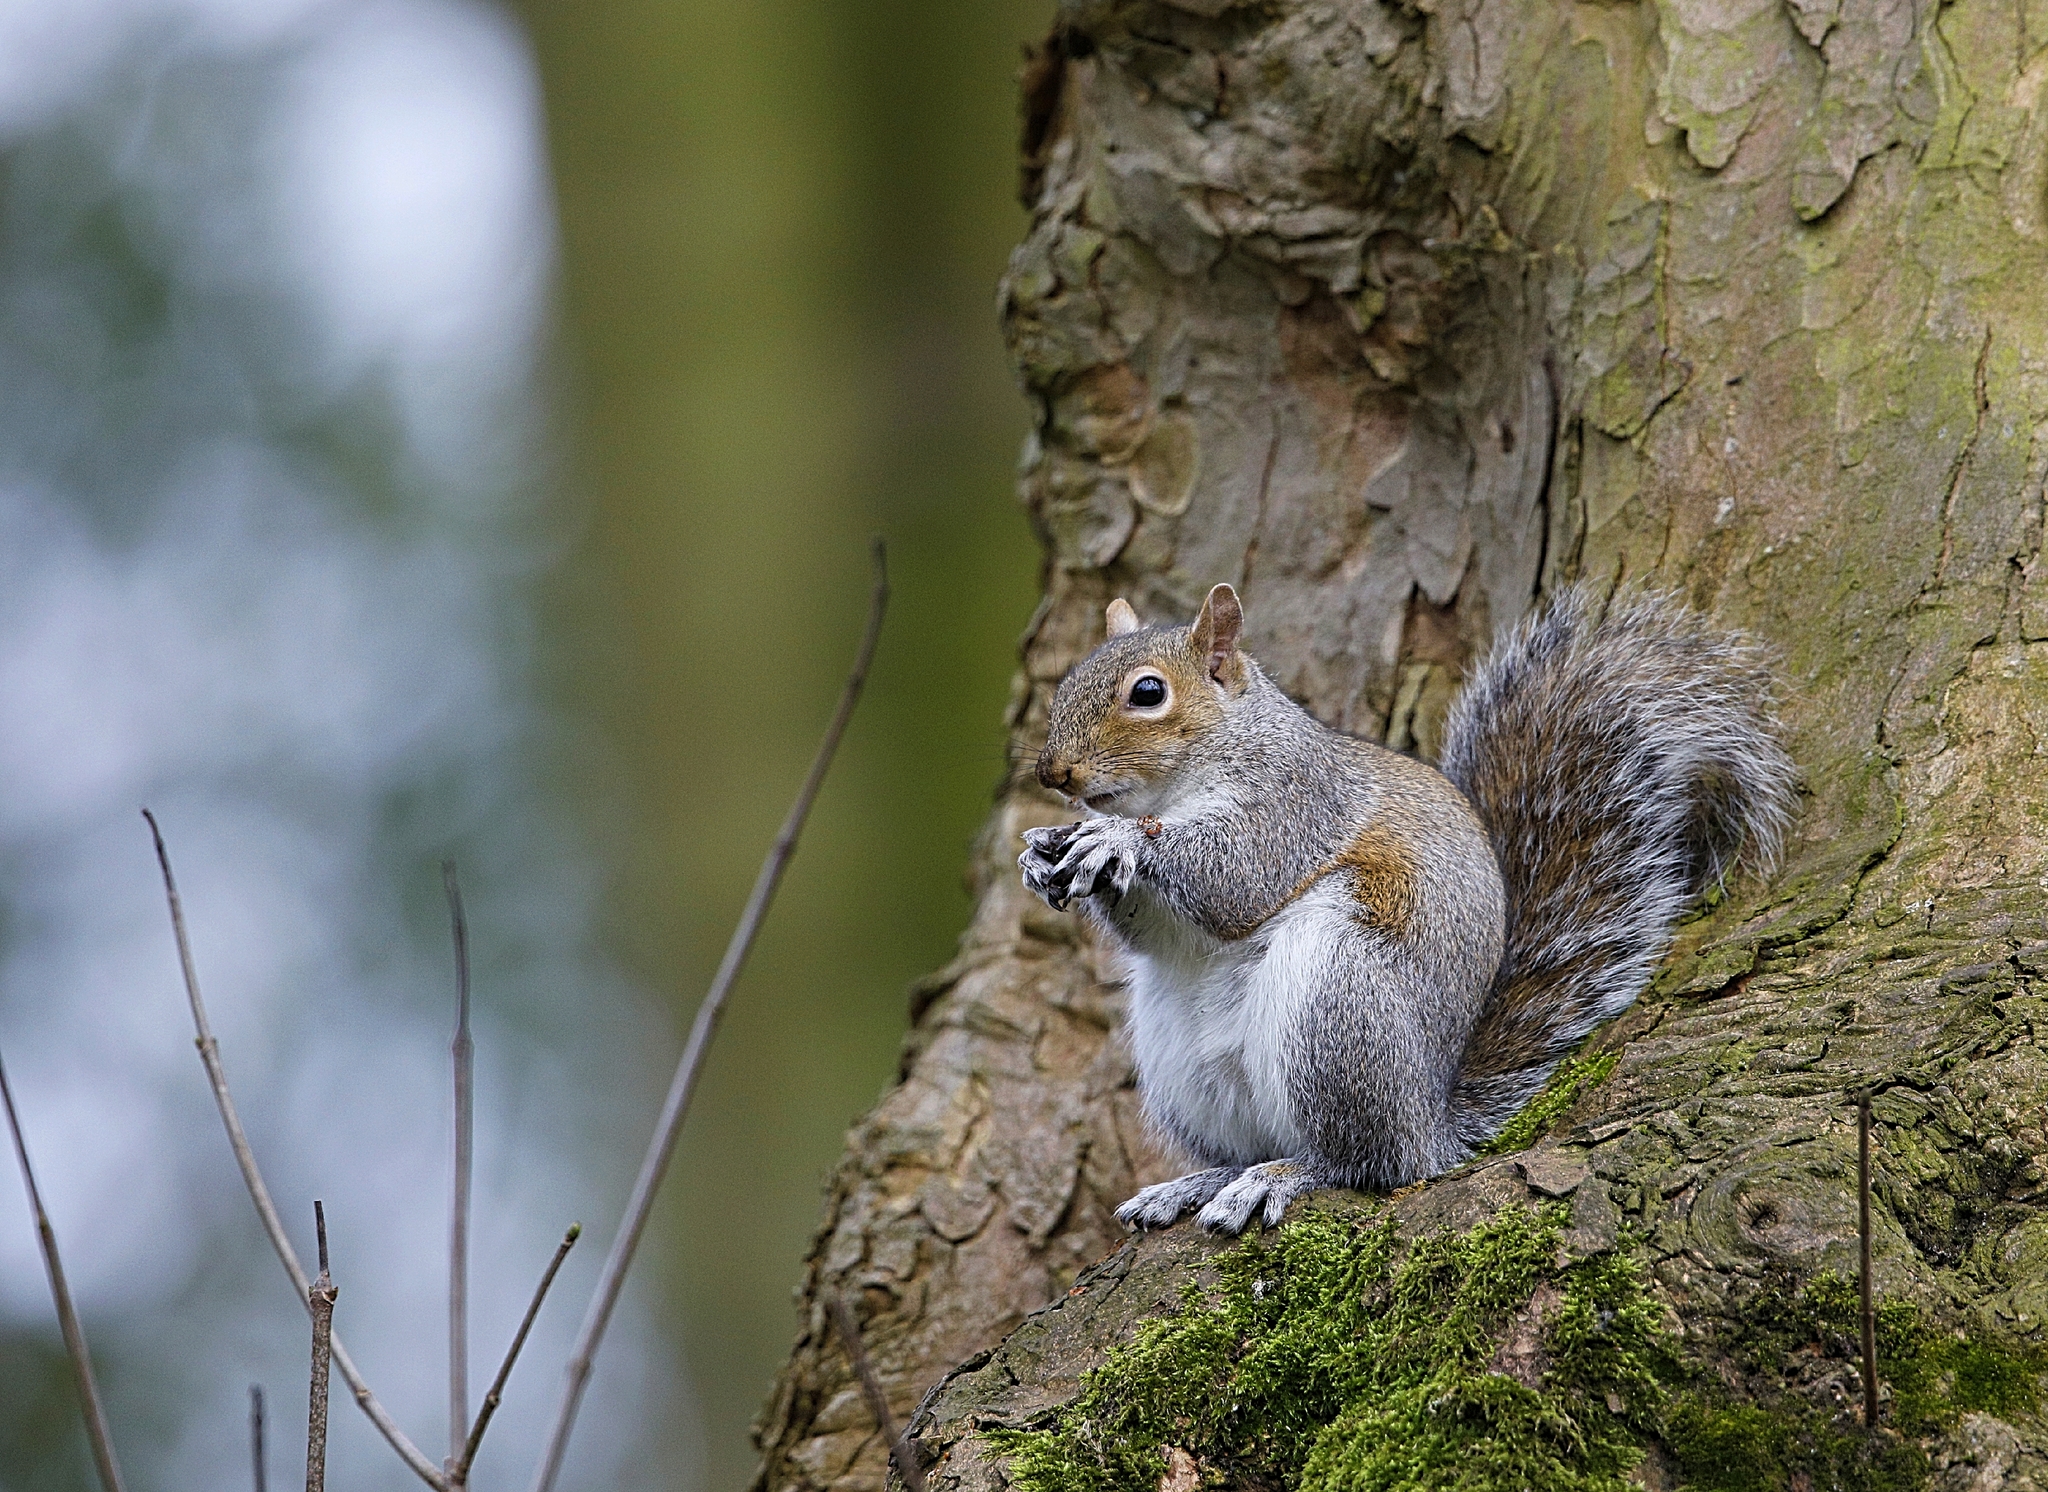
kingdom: Animalia
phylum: Chordata
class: Mammalia
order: Rodentia
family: Sciuridae
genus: Sciurus
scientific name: Sciurus carolinensis
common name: Eastern gray squirrel
